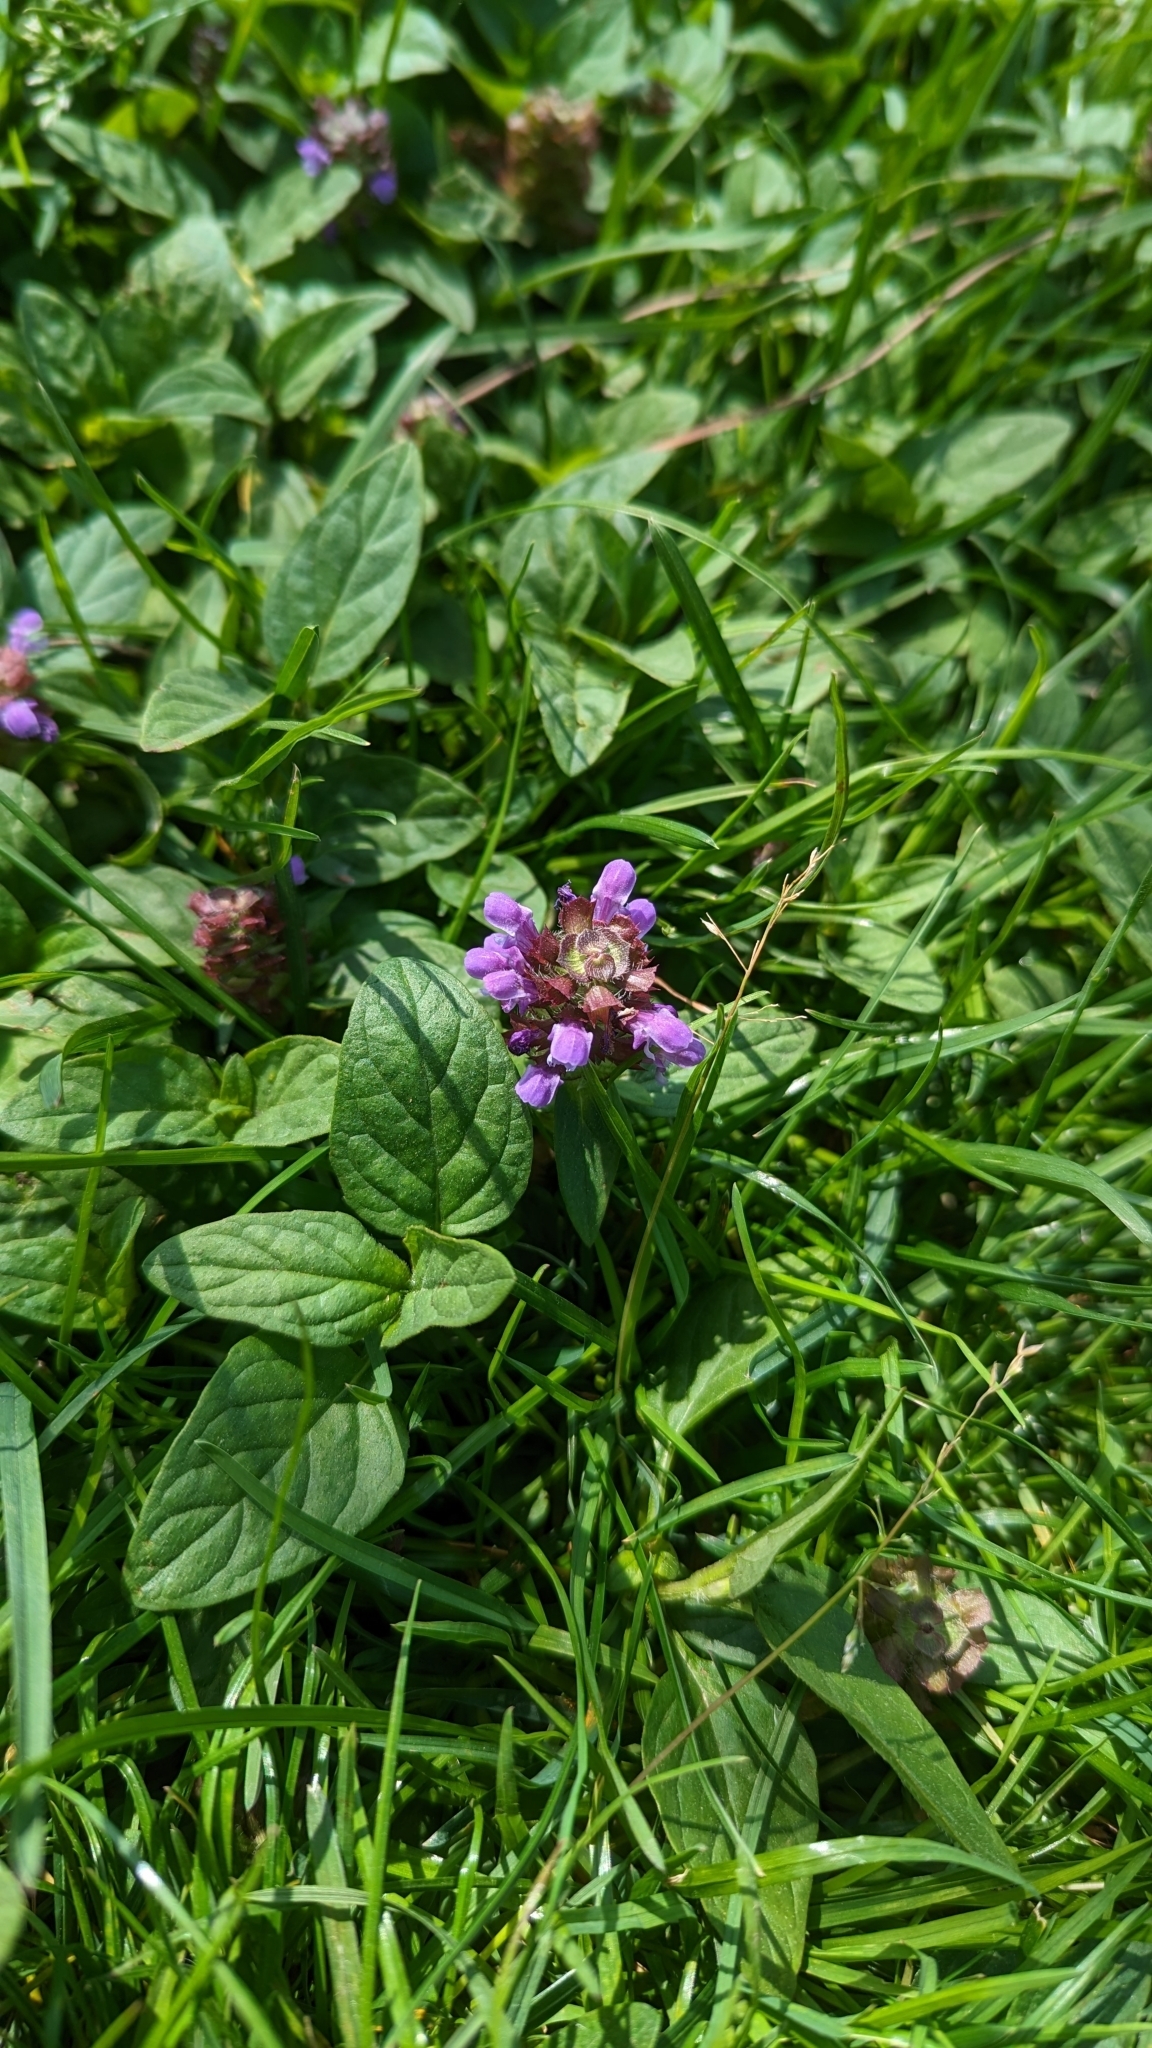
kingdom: Plantae
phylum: Tracheophyta
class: Magnoliopsida
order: Lamiales
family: Lamiaceae
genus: Prunella
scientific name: Prunella vulgaris
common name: Heal-all
